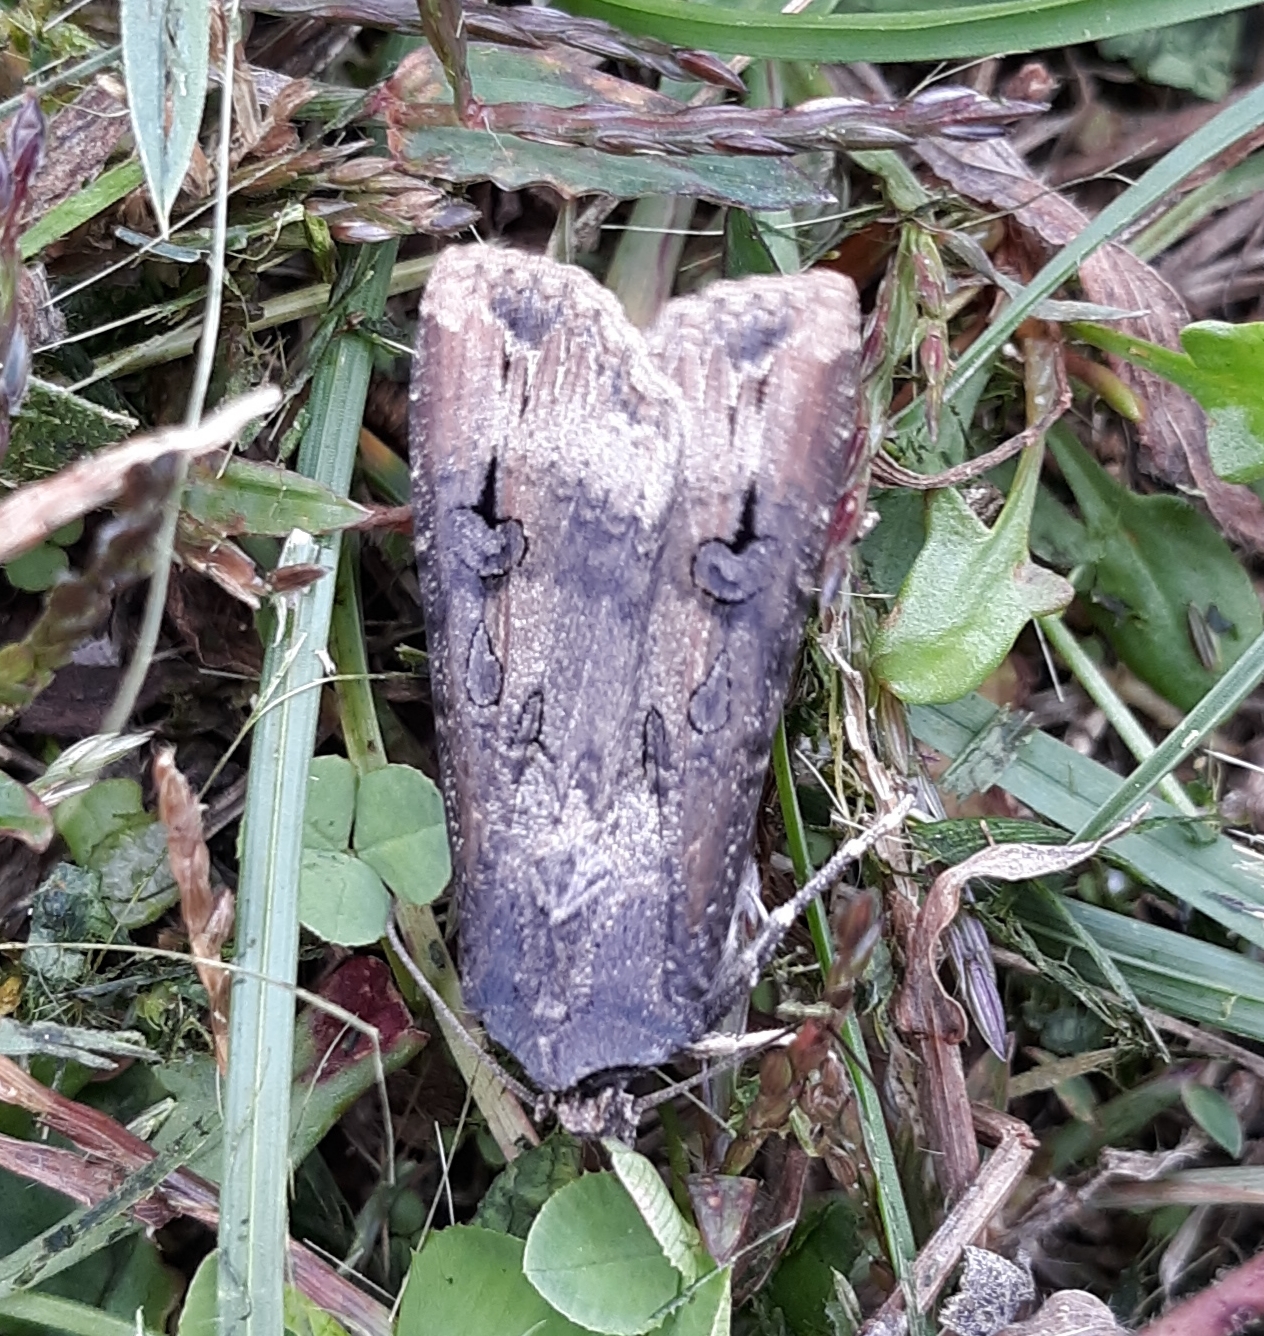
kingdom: Animalia
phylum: Arthropoda
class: Insecta
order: Lepidoptera
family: Noctuidae
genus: Agrotis
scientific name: Agrotis ipsilon
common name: Dark sword-grass
